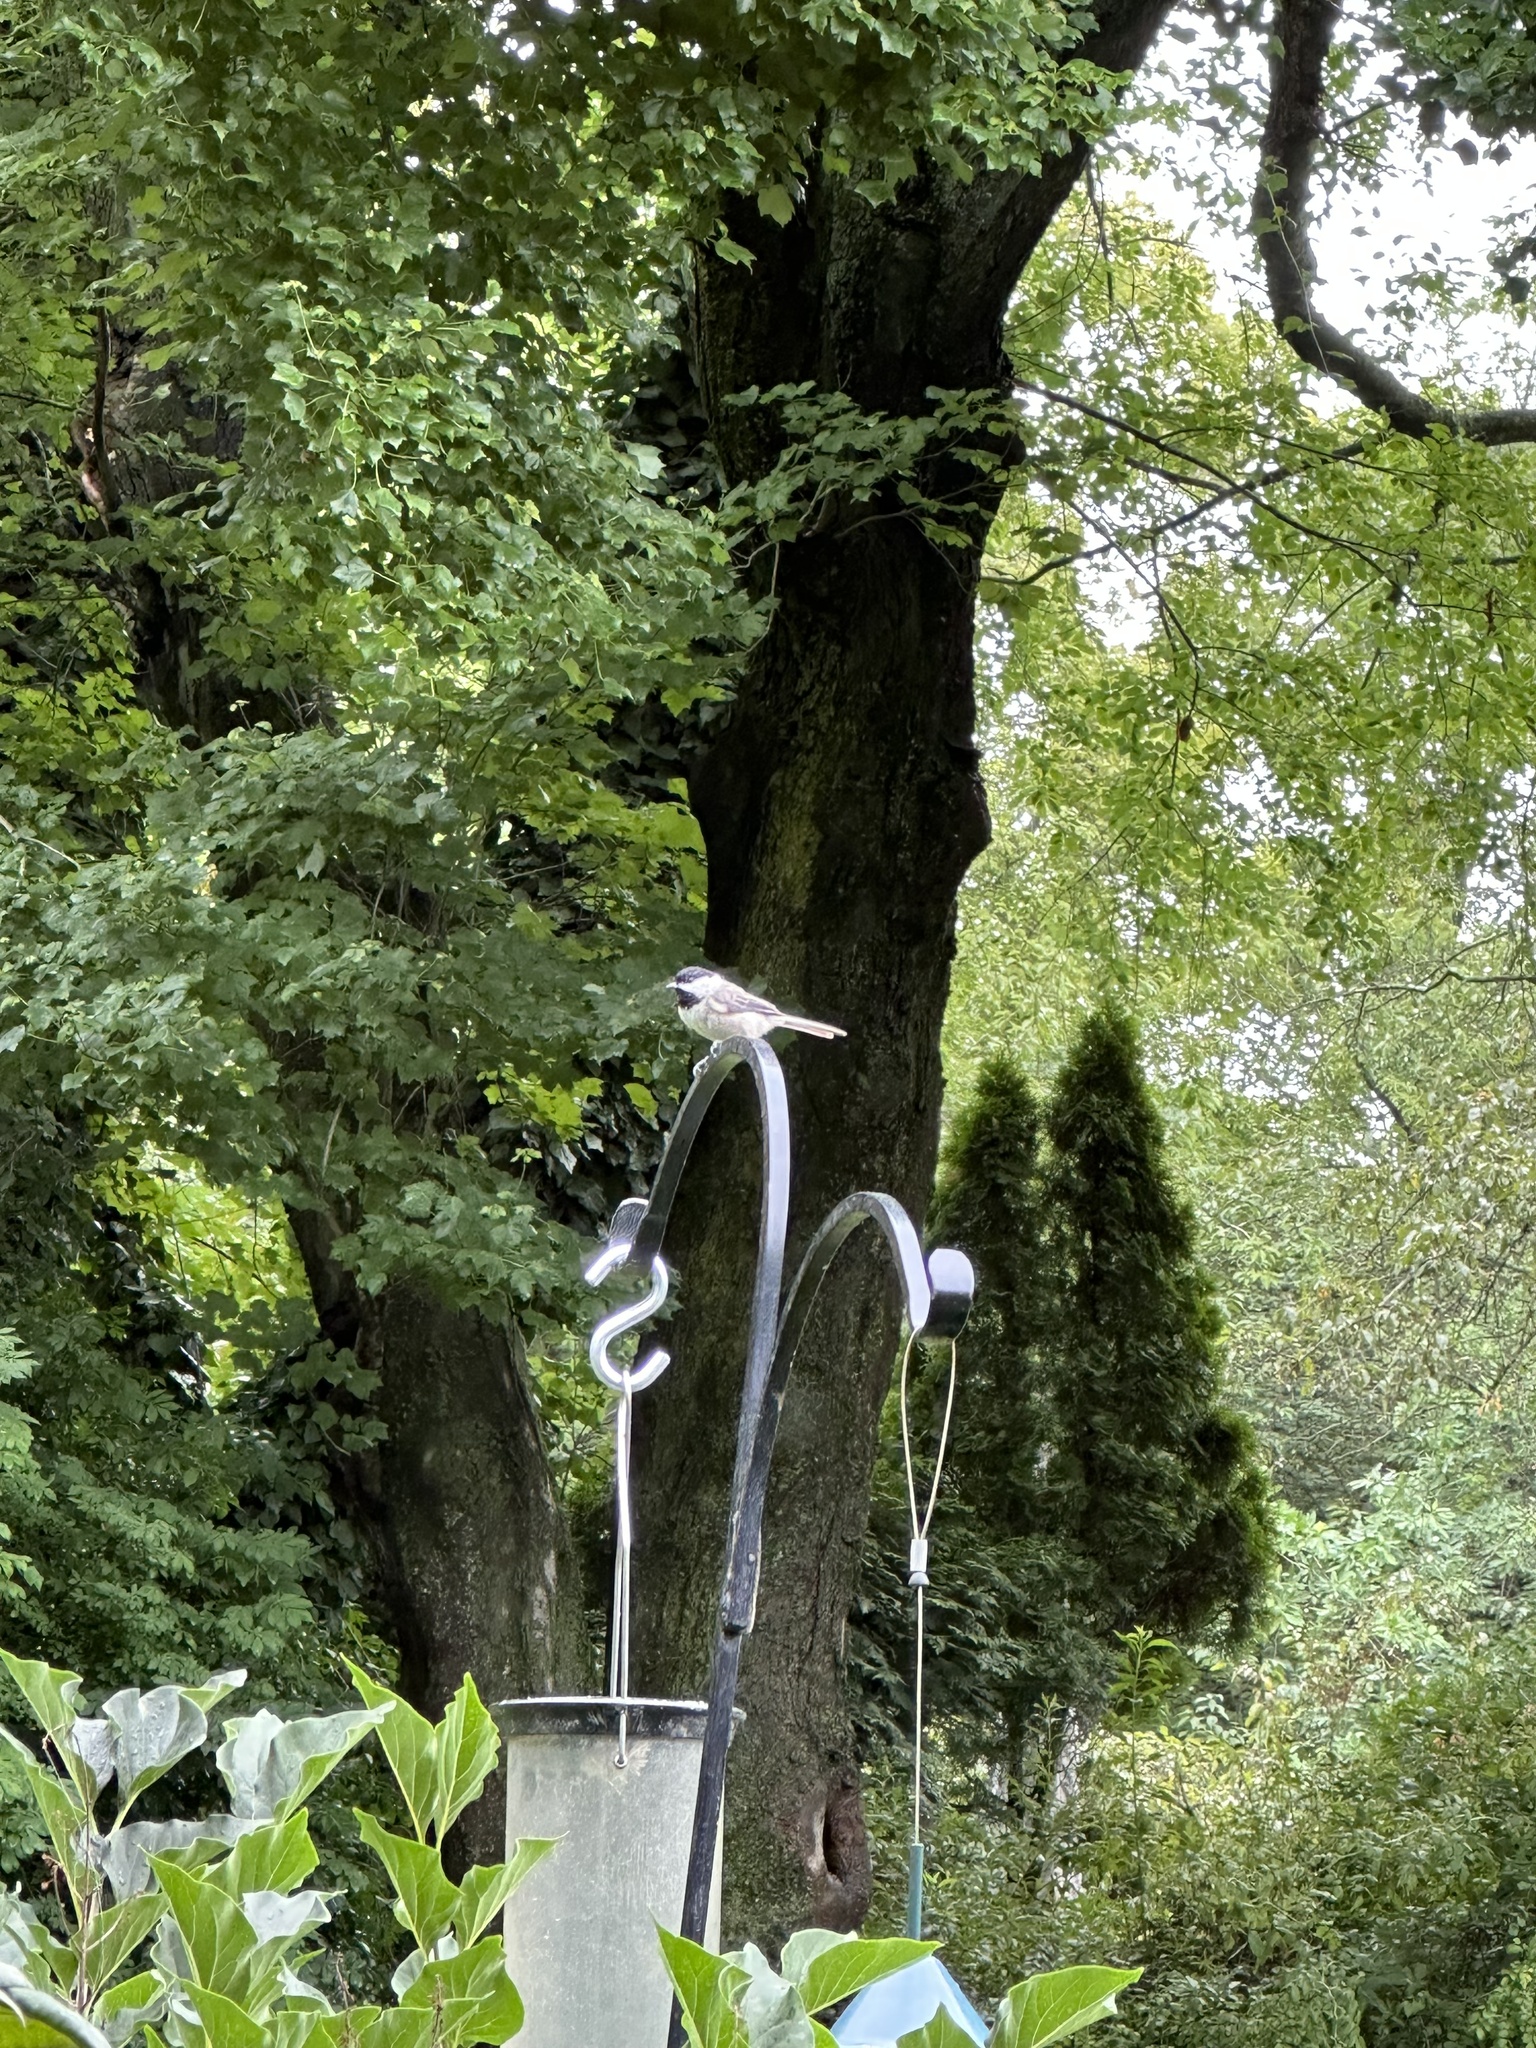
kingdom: Animalia
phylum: Chordata
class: Aves
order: Passeriformes
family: Paridae
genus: Poecile
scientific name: Poecile carolinensis
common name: Carolina chickadee
